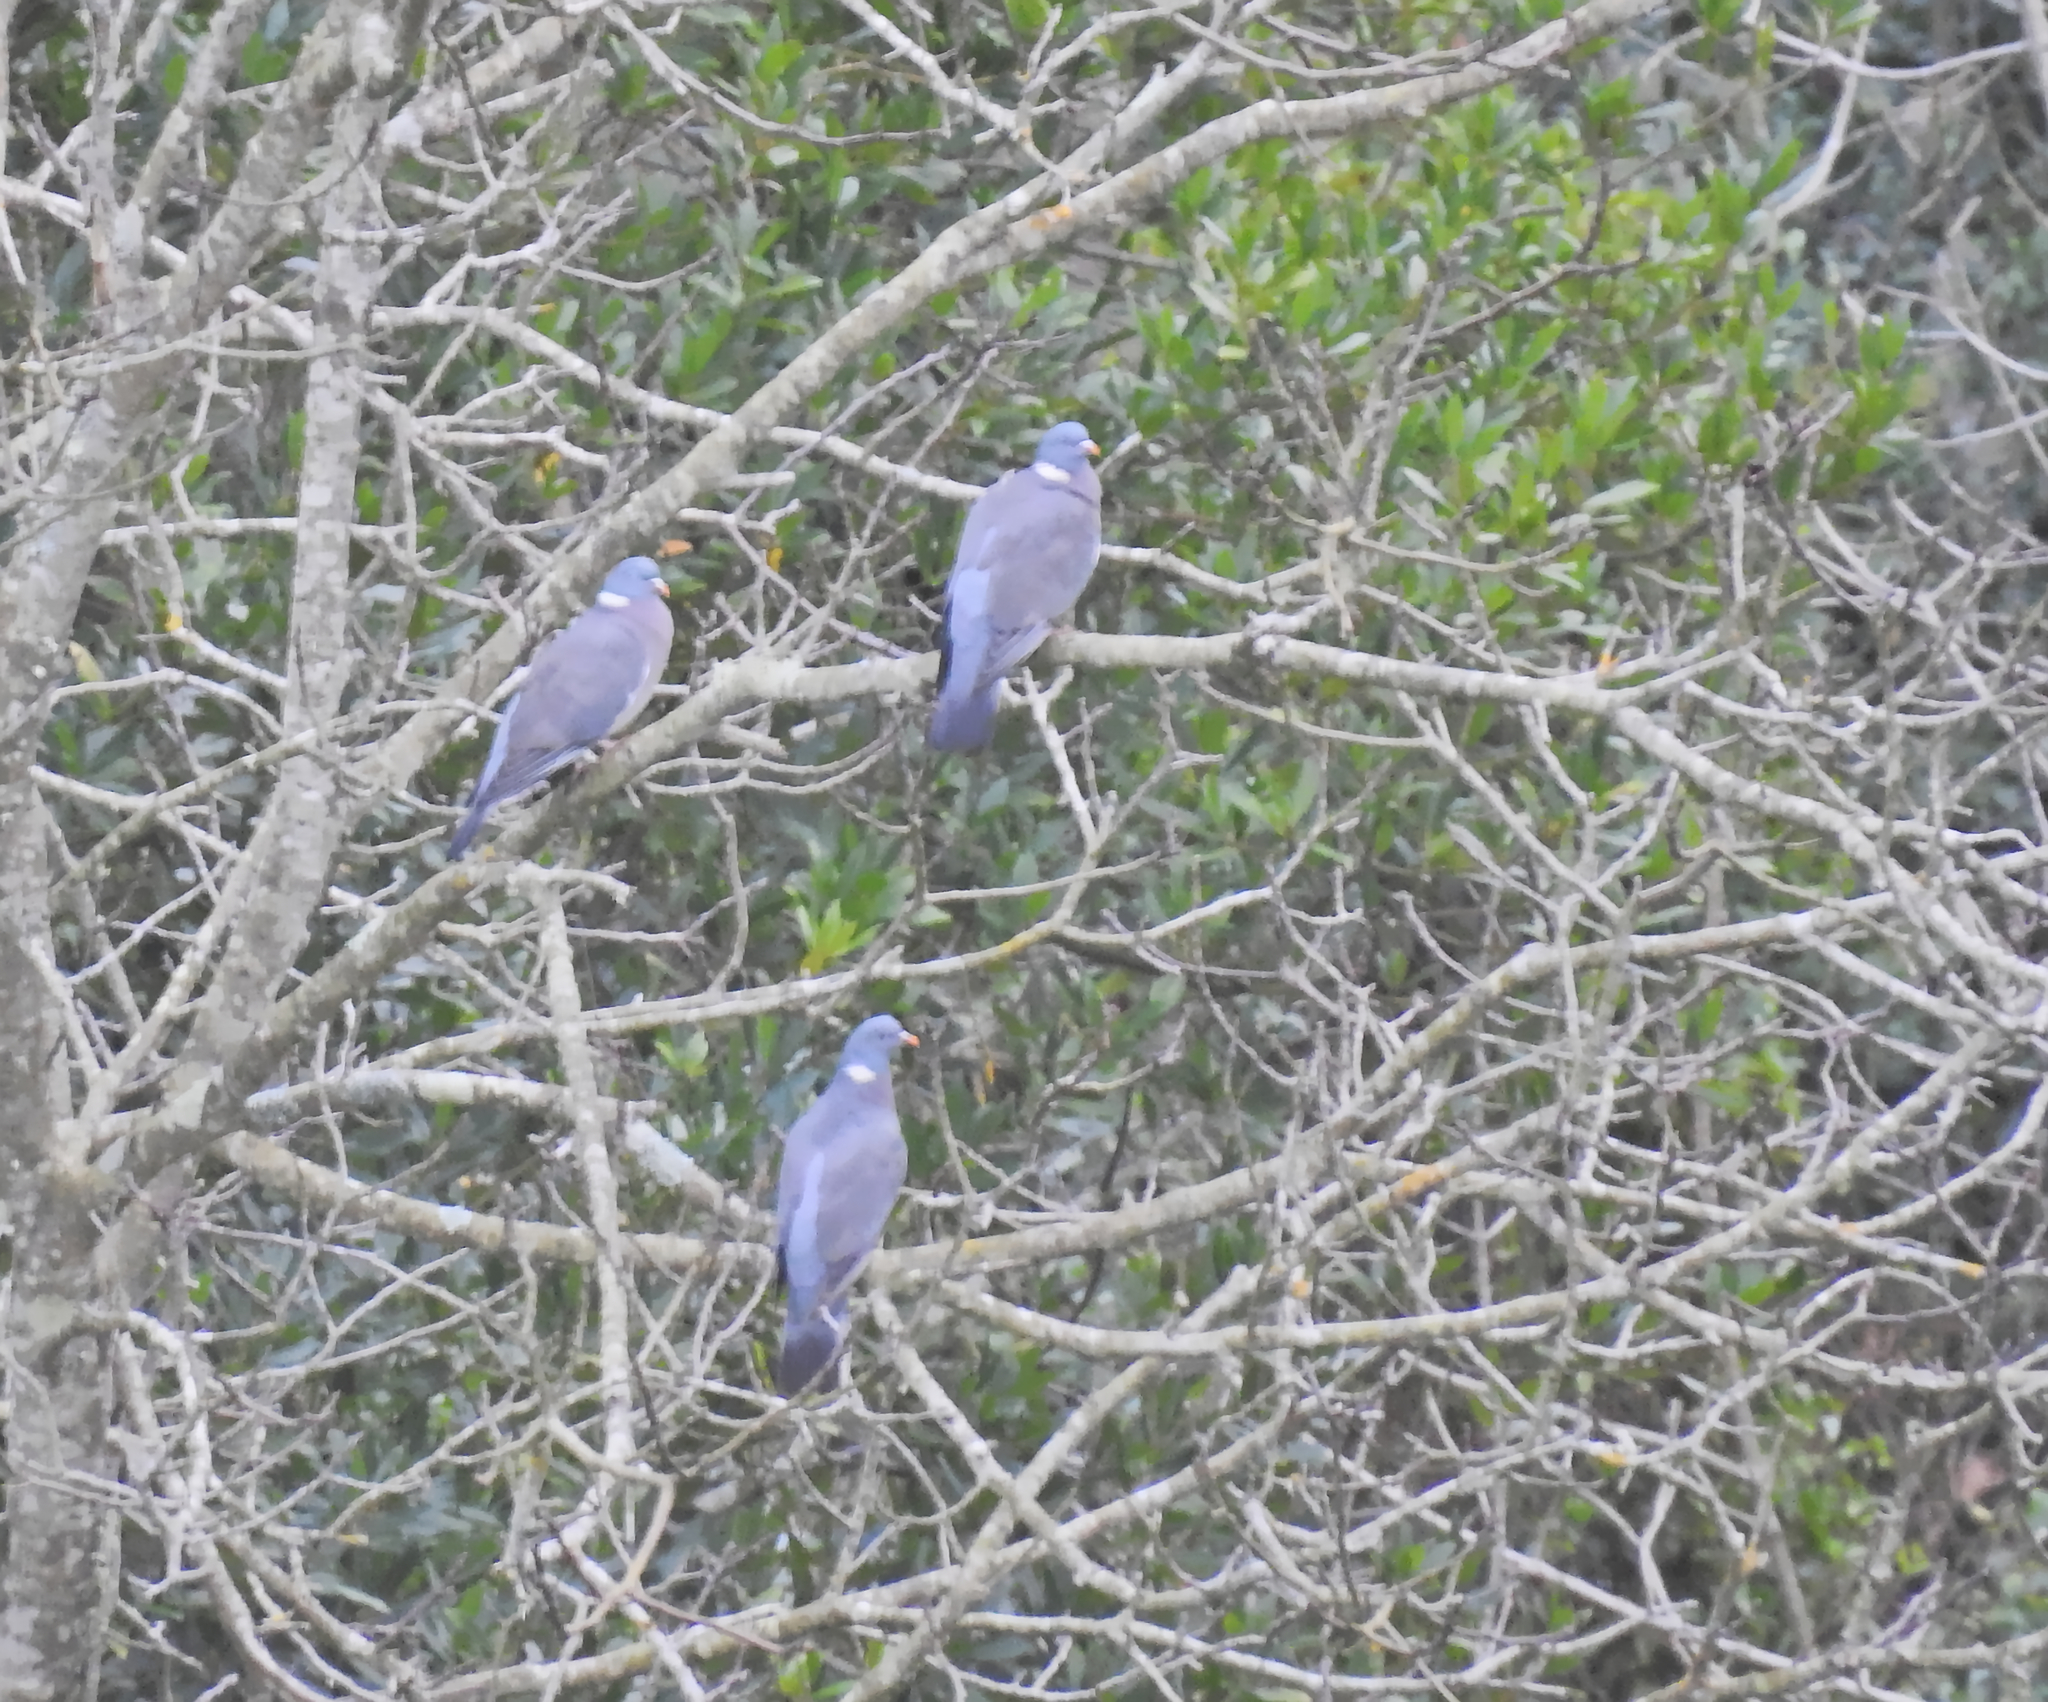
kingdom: Animalia
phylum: Chordata
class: Aves
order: Columbiformes
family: Columbidae
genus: Columba
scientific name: Columba palumbus
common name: Common wood pigeon
